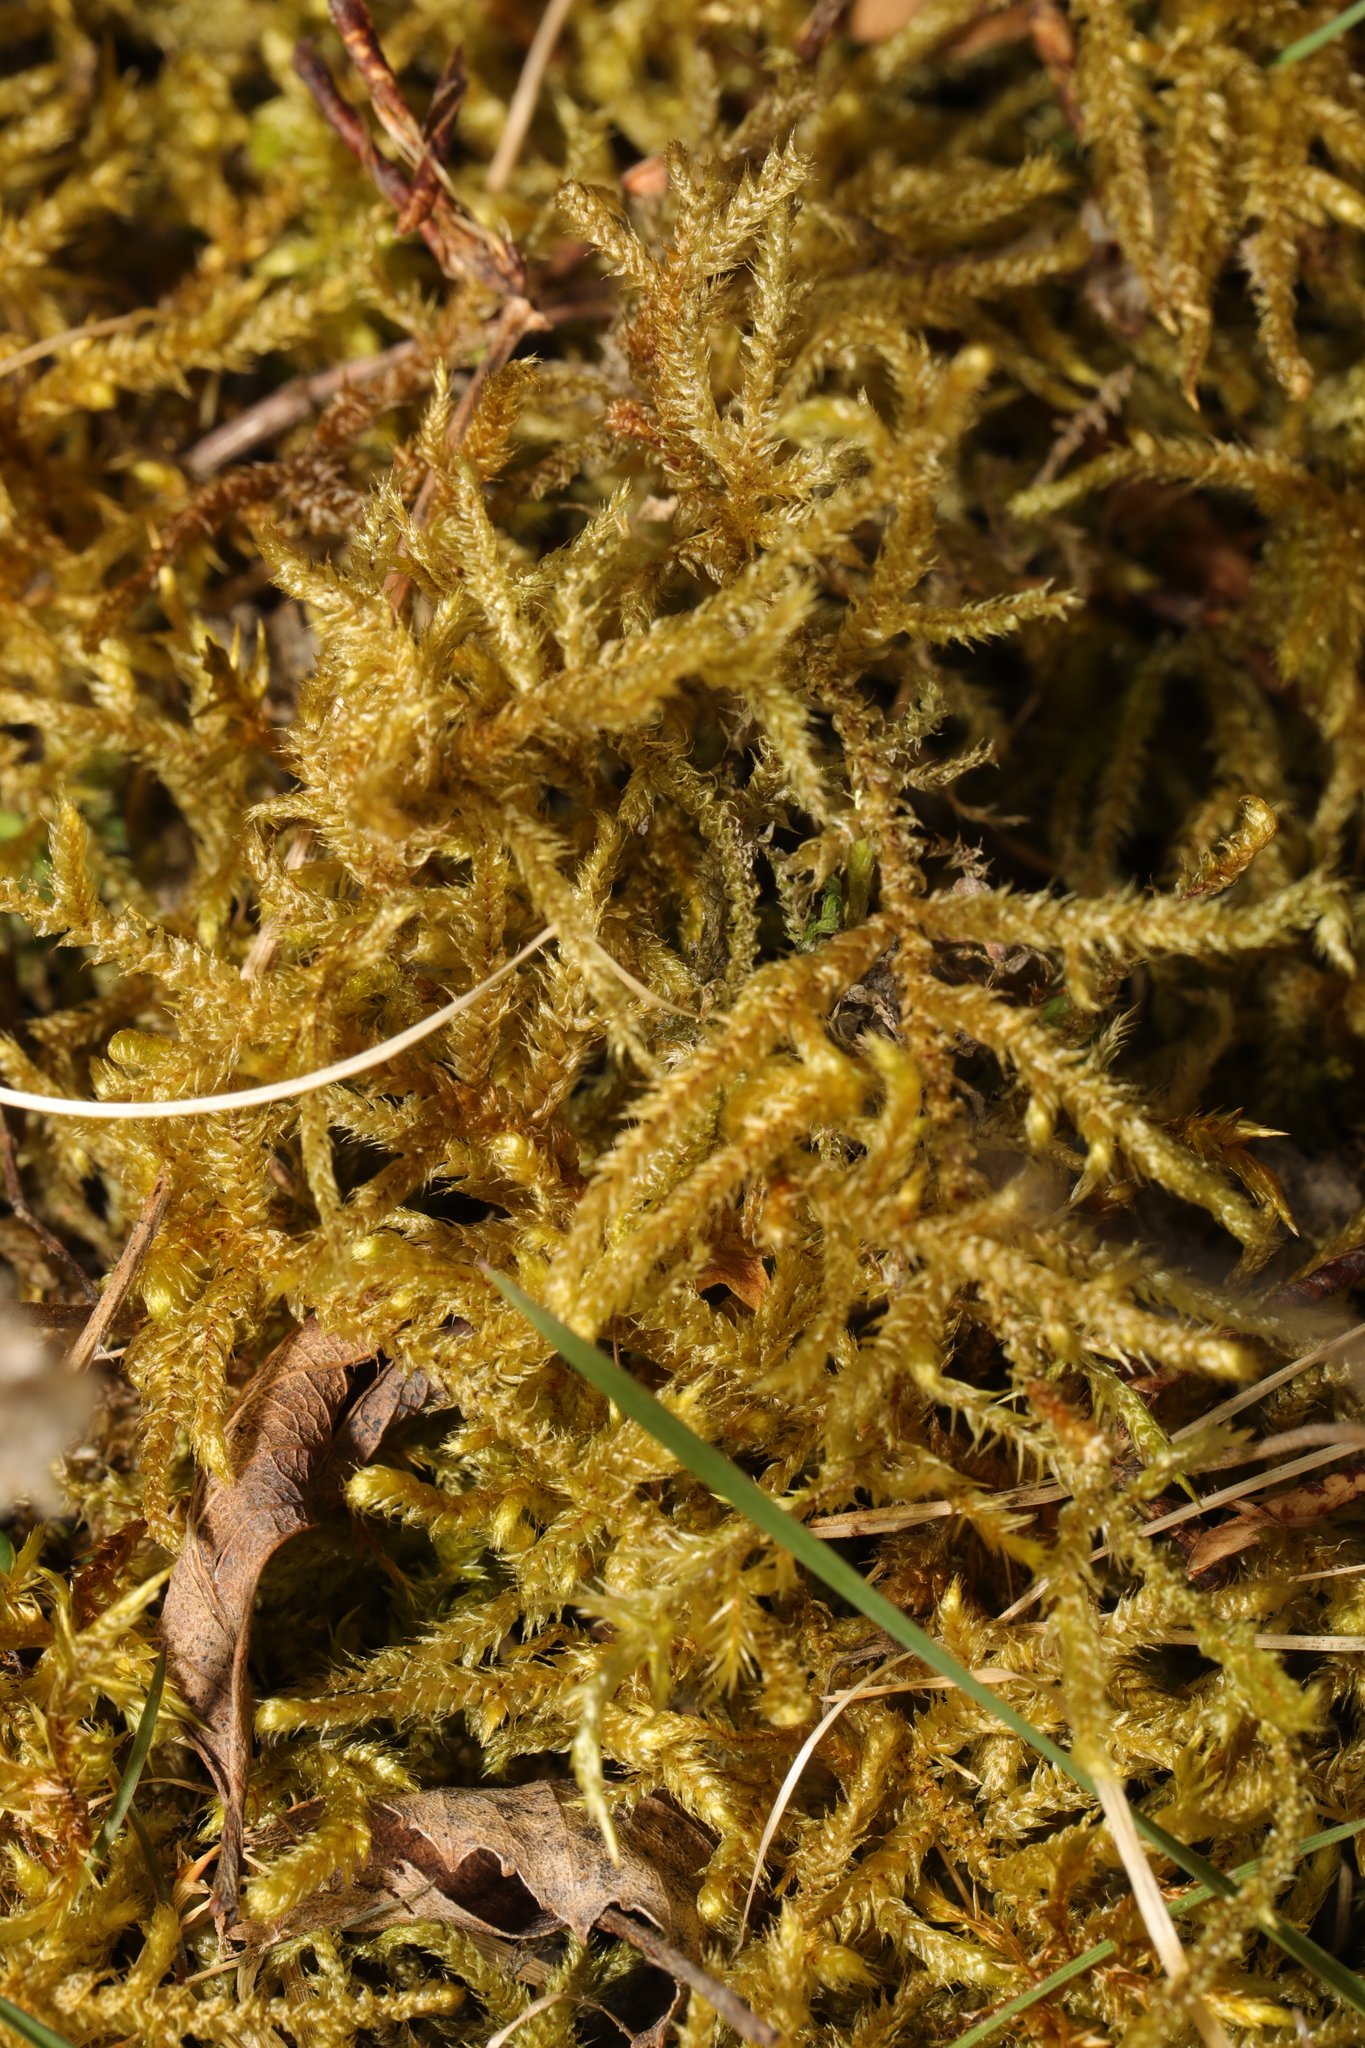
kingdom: Plantae
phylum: Bryophyta
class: Bryopsida
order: Hypnales
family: Brachytheciaceae
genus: Eurhynchium
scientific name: Eurhynchium striatum
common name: Common striated feather-moss
